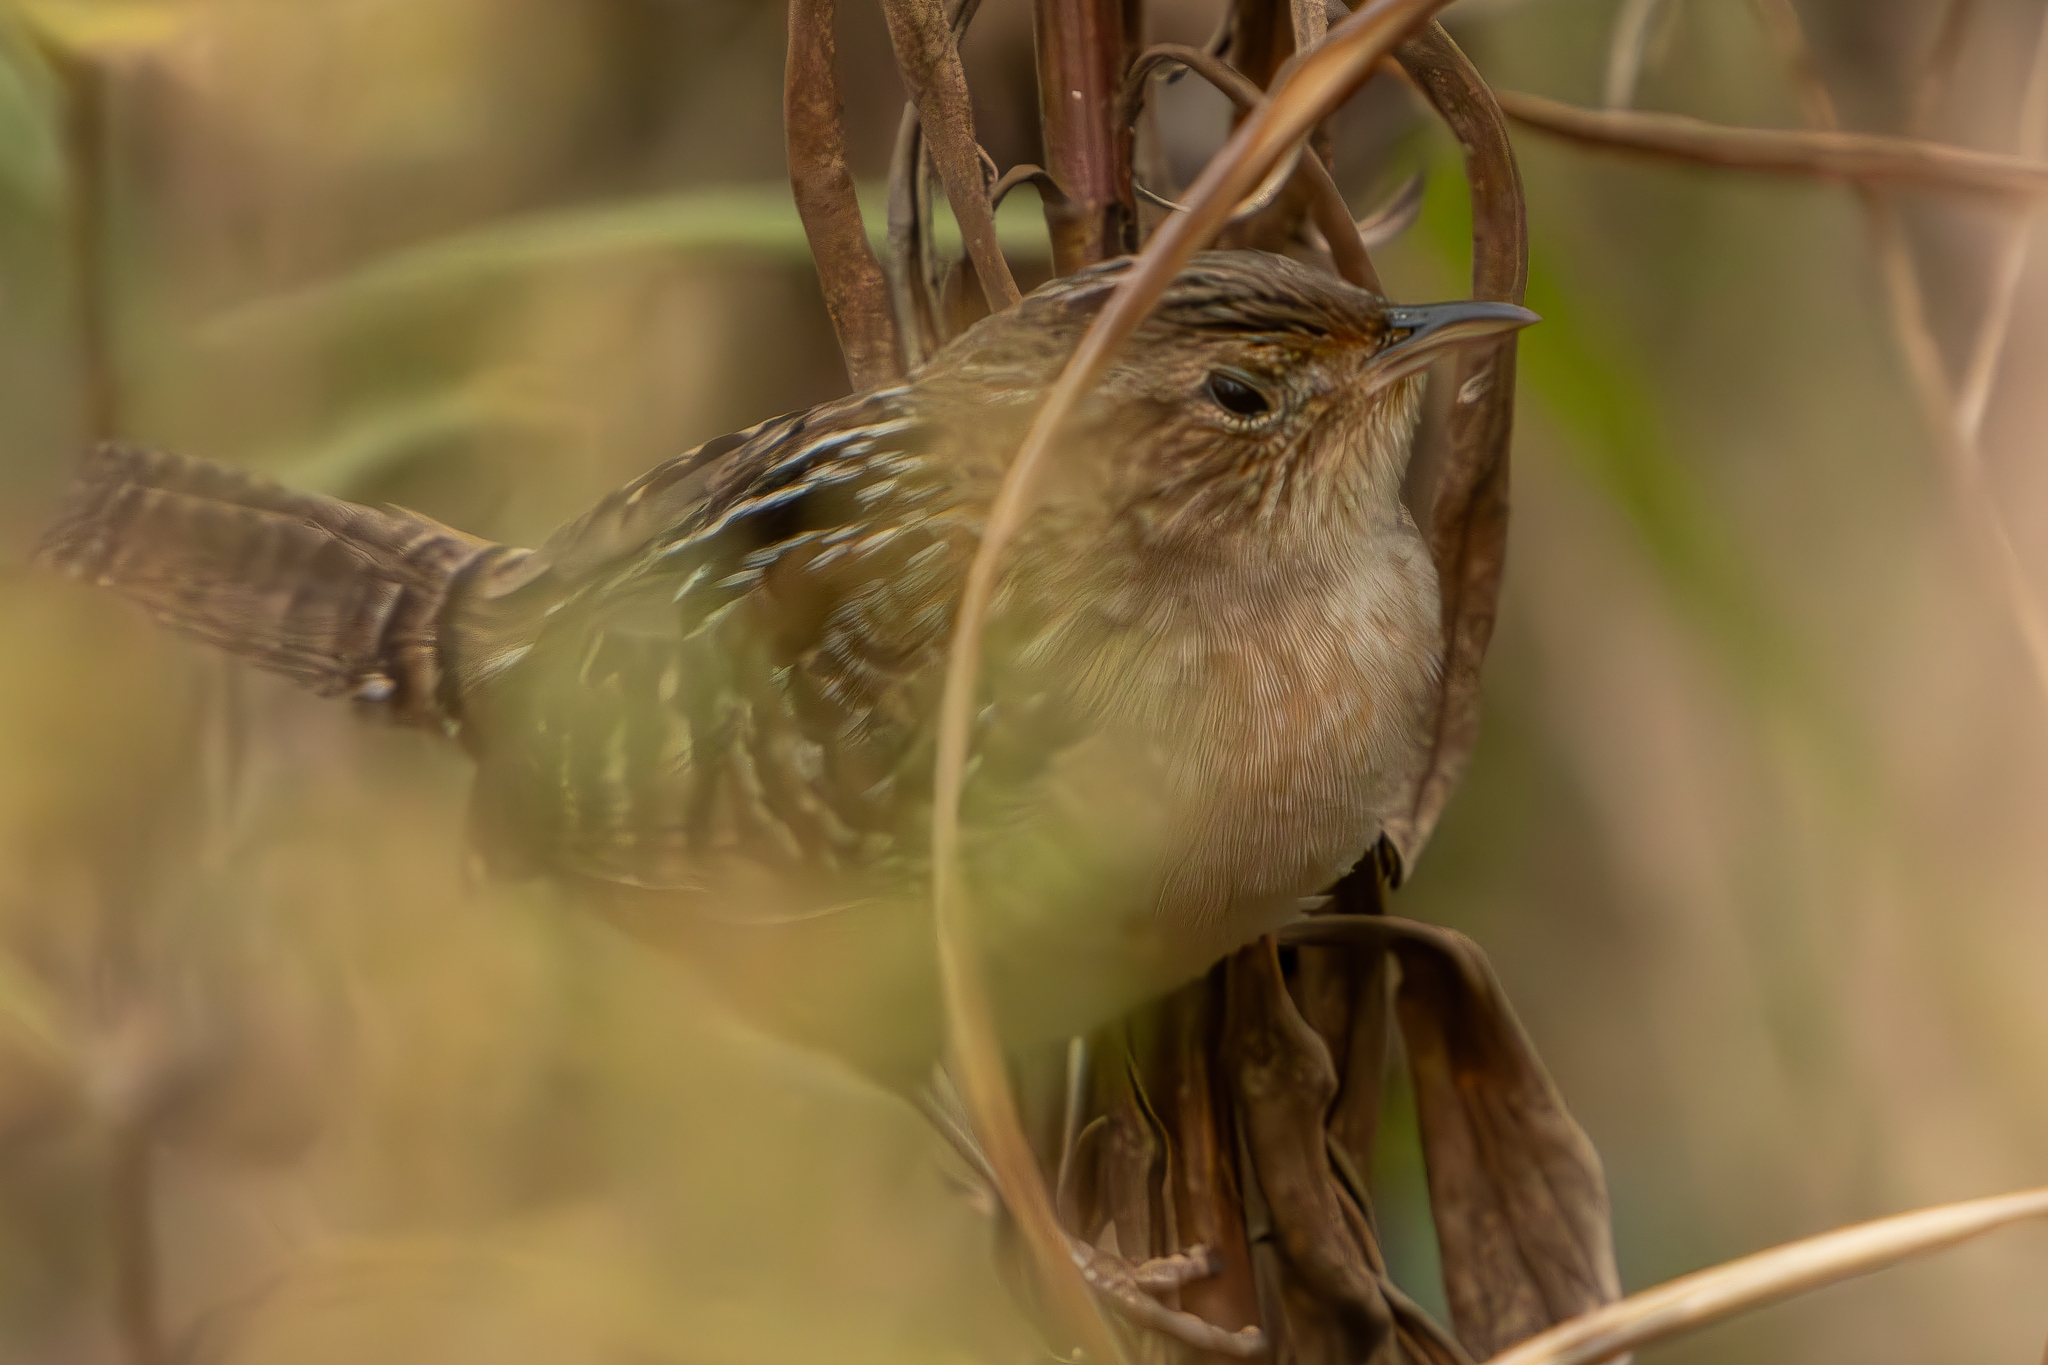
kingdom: Animalia
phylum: Chordata
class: Aves
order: Passeriformes
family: Troglodytidae
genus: Cistothorus
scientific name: Cistothorus platensis
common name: Sedge wren
